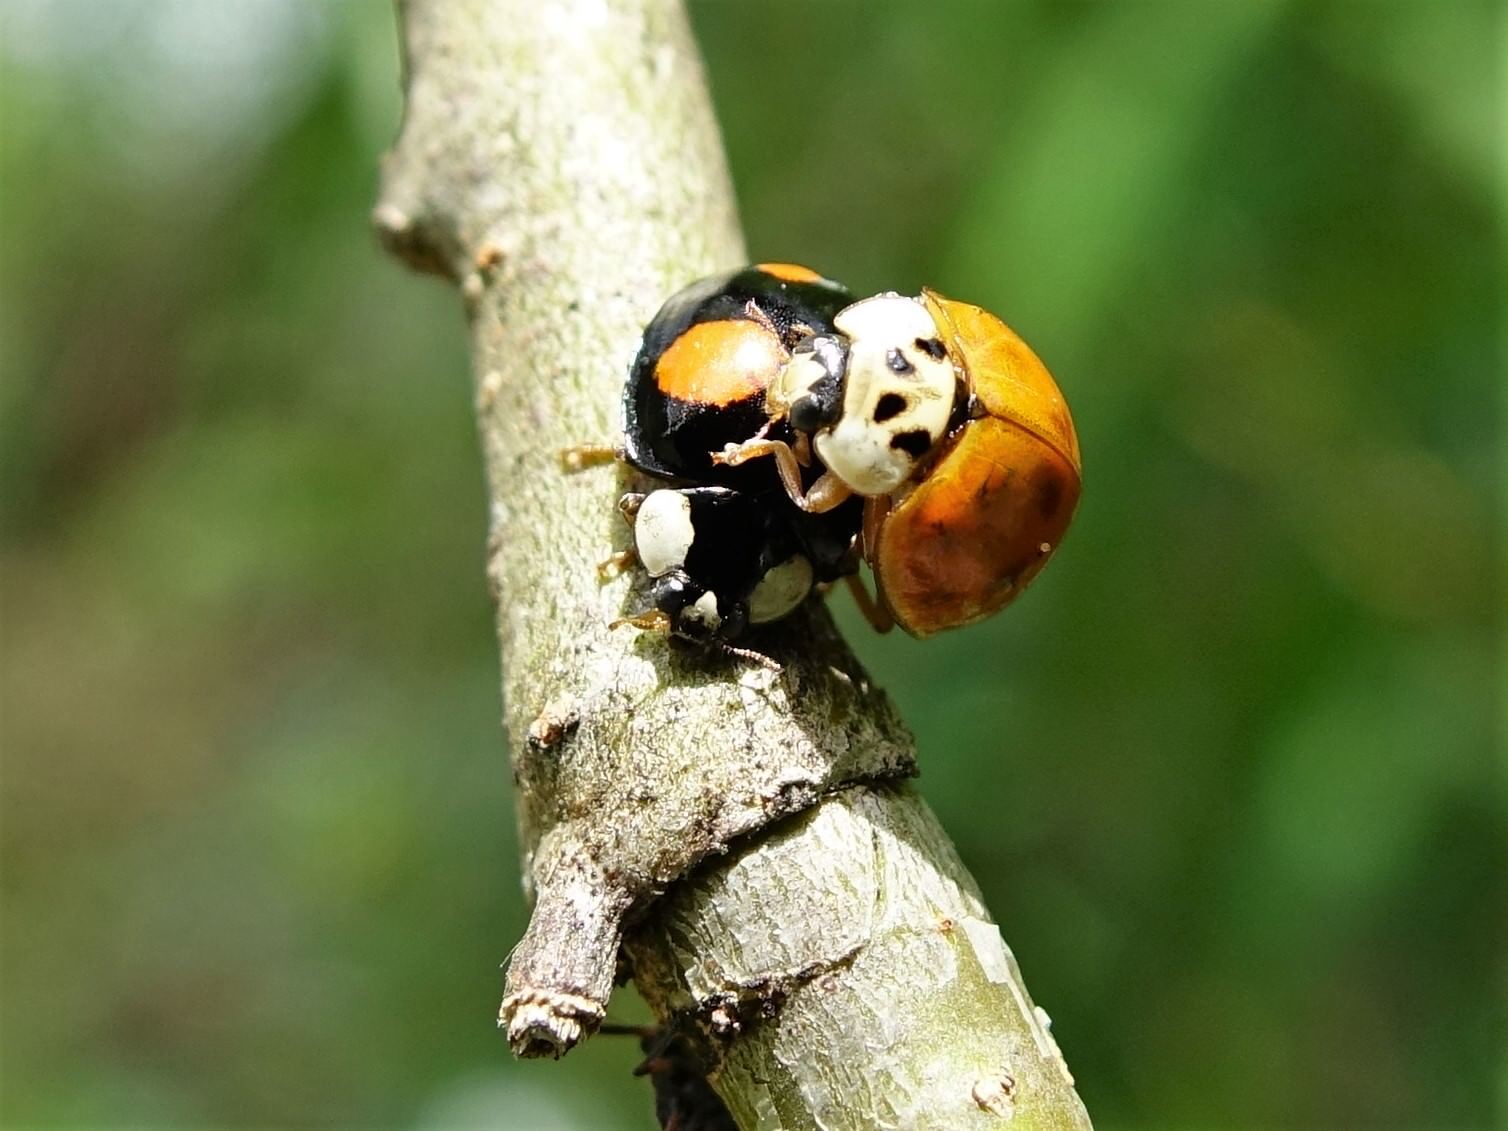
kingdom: Animalia
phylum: Arthropoda
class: Insecta
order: Coleoptera
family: Coccinellidae
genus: Harmonia
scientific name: Harmonia axyridis
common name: Harlequin ladybird
